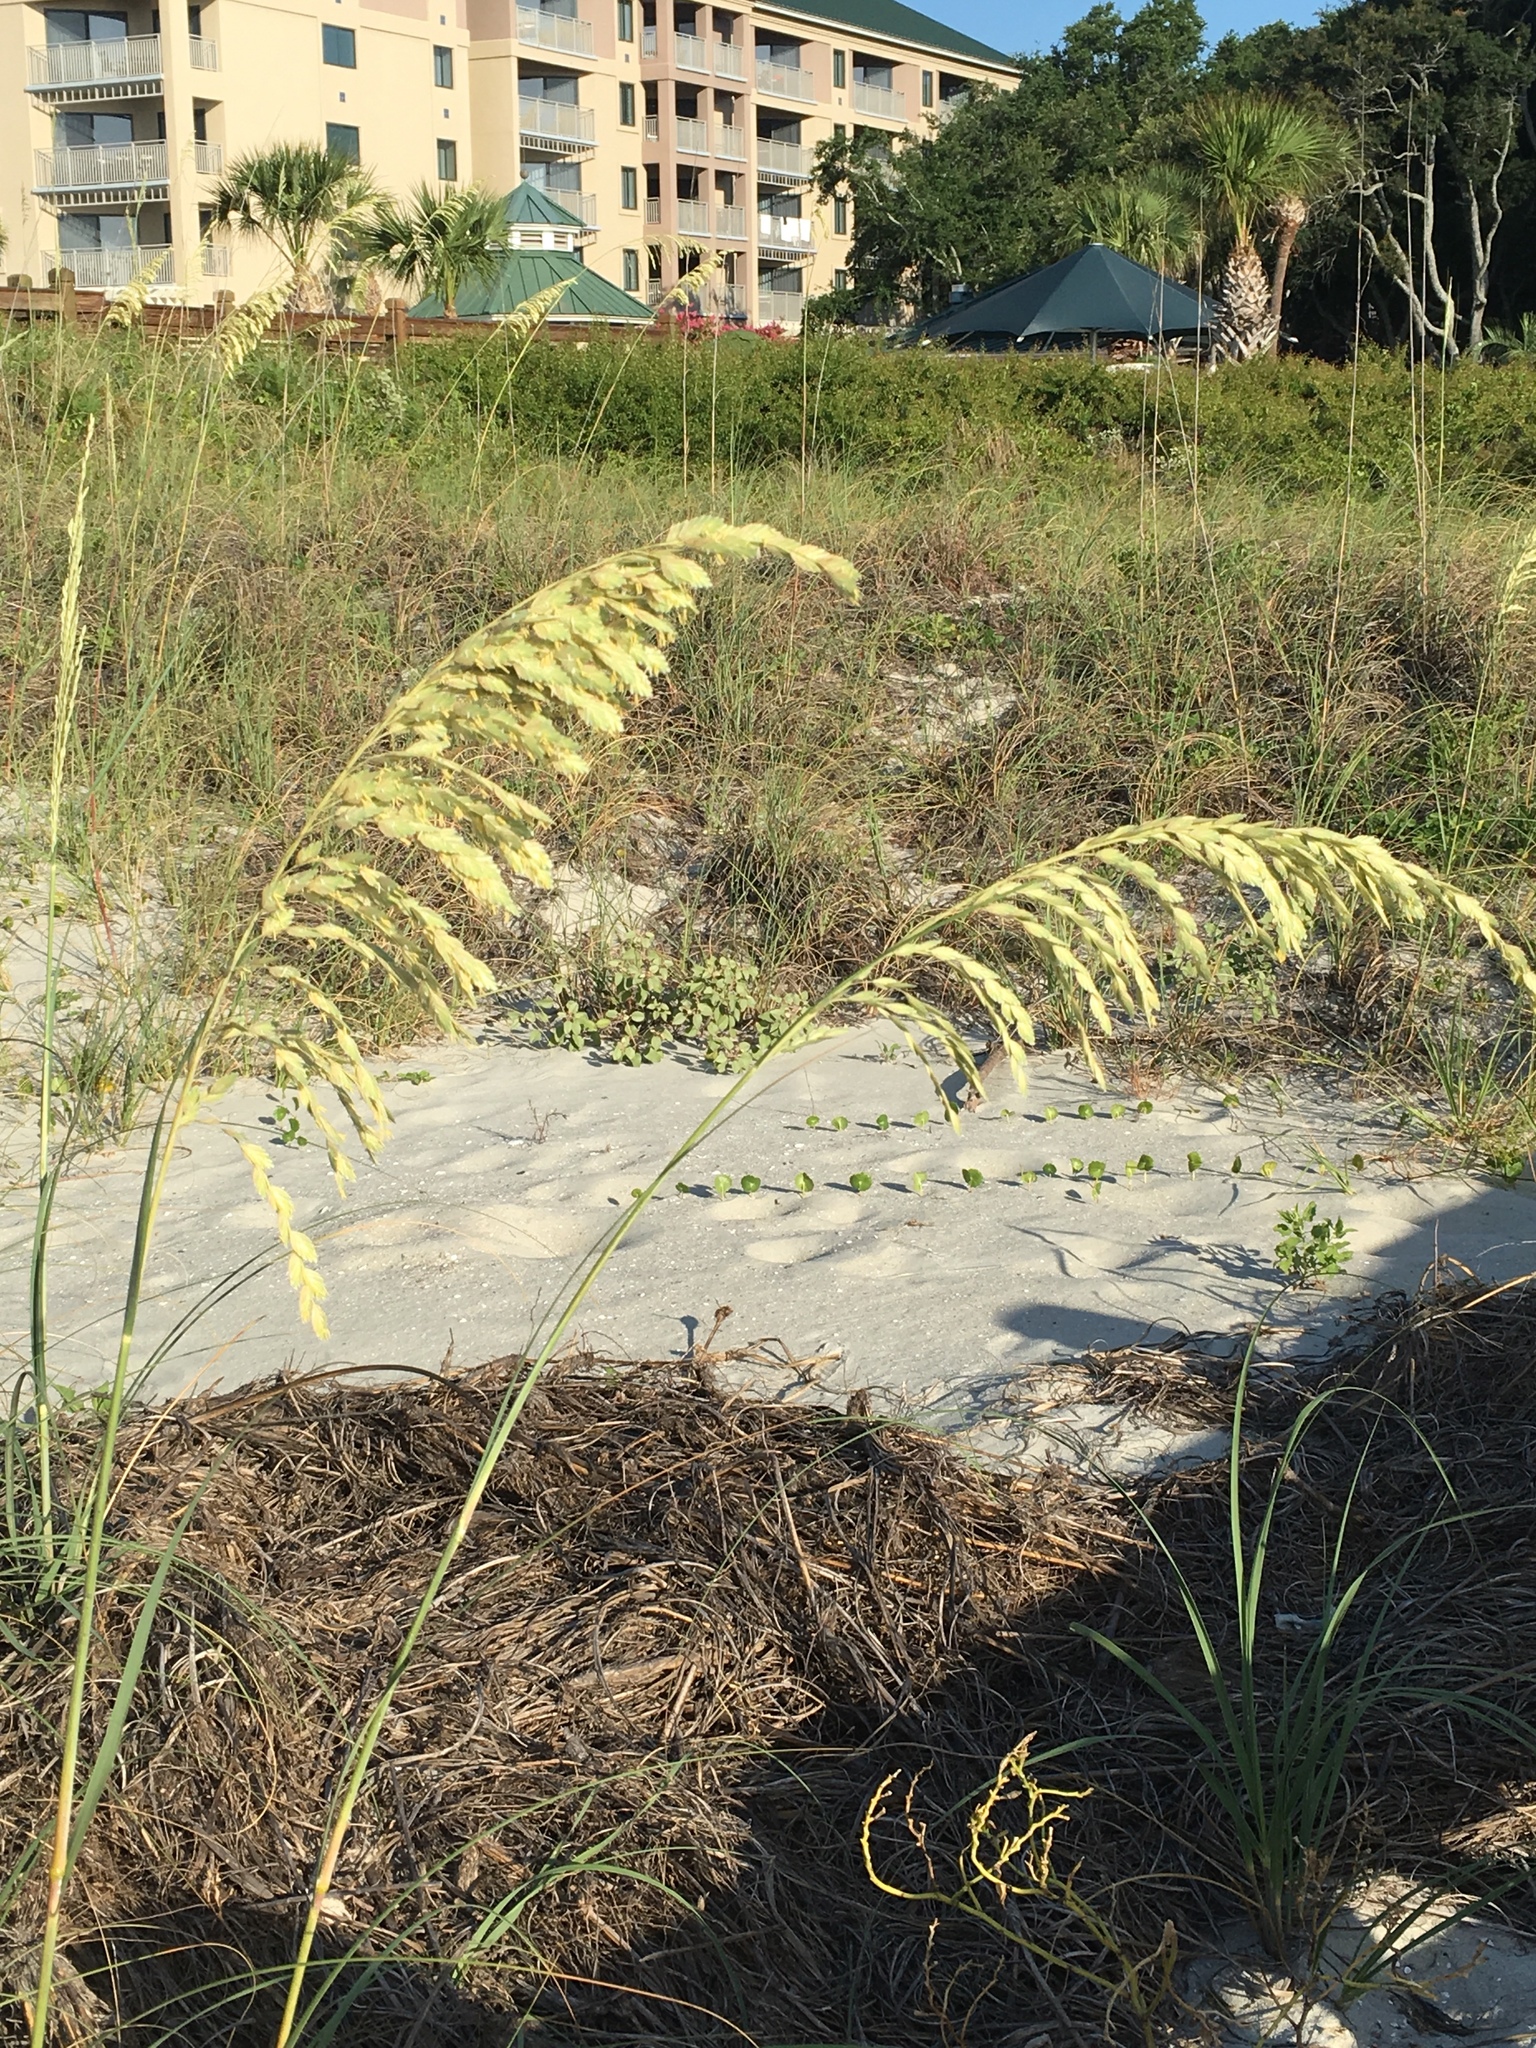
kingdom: Plantae
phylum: Tracheophyta
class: Liliopsida
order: Poales
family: Poaceae
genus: Uniola
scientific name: Uniola paniculata
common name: Seaside-oats
